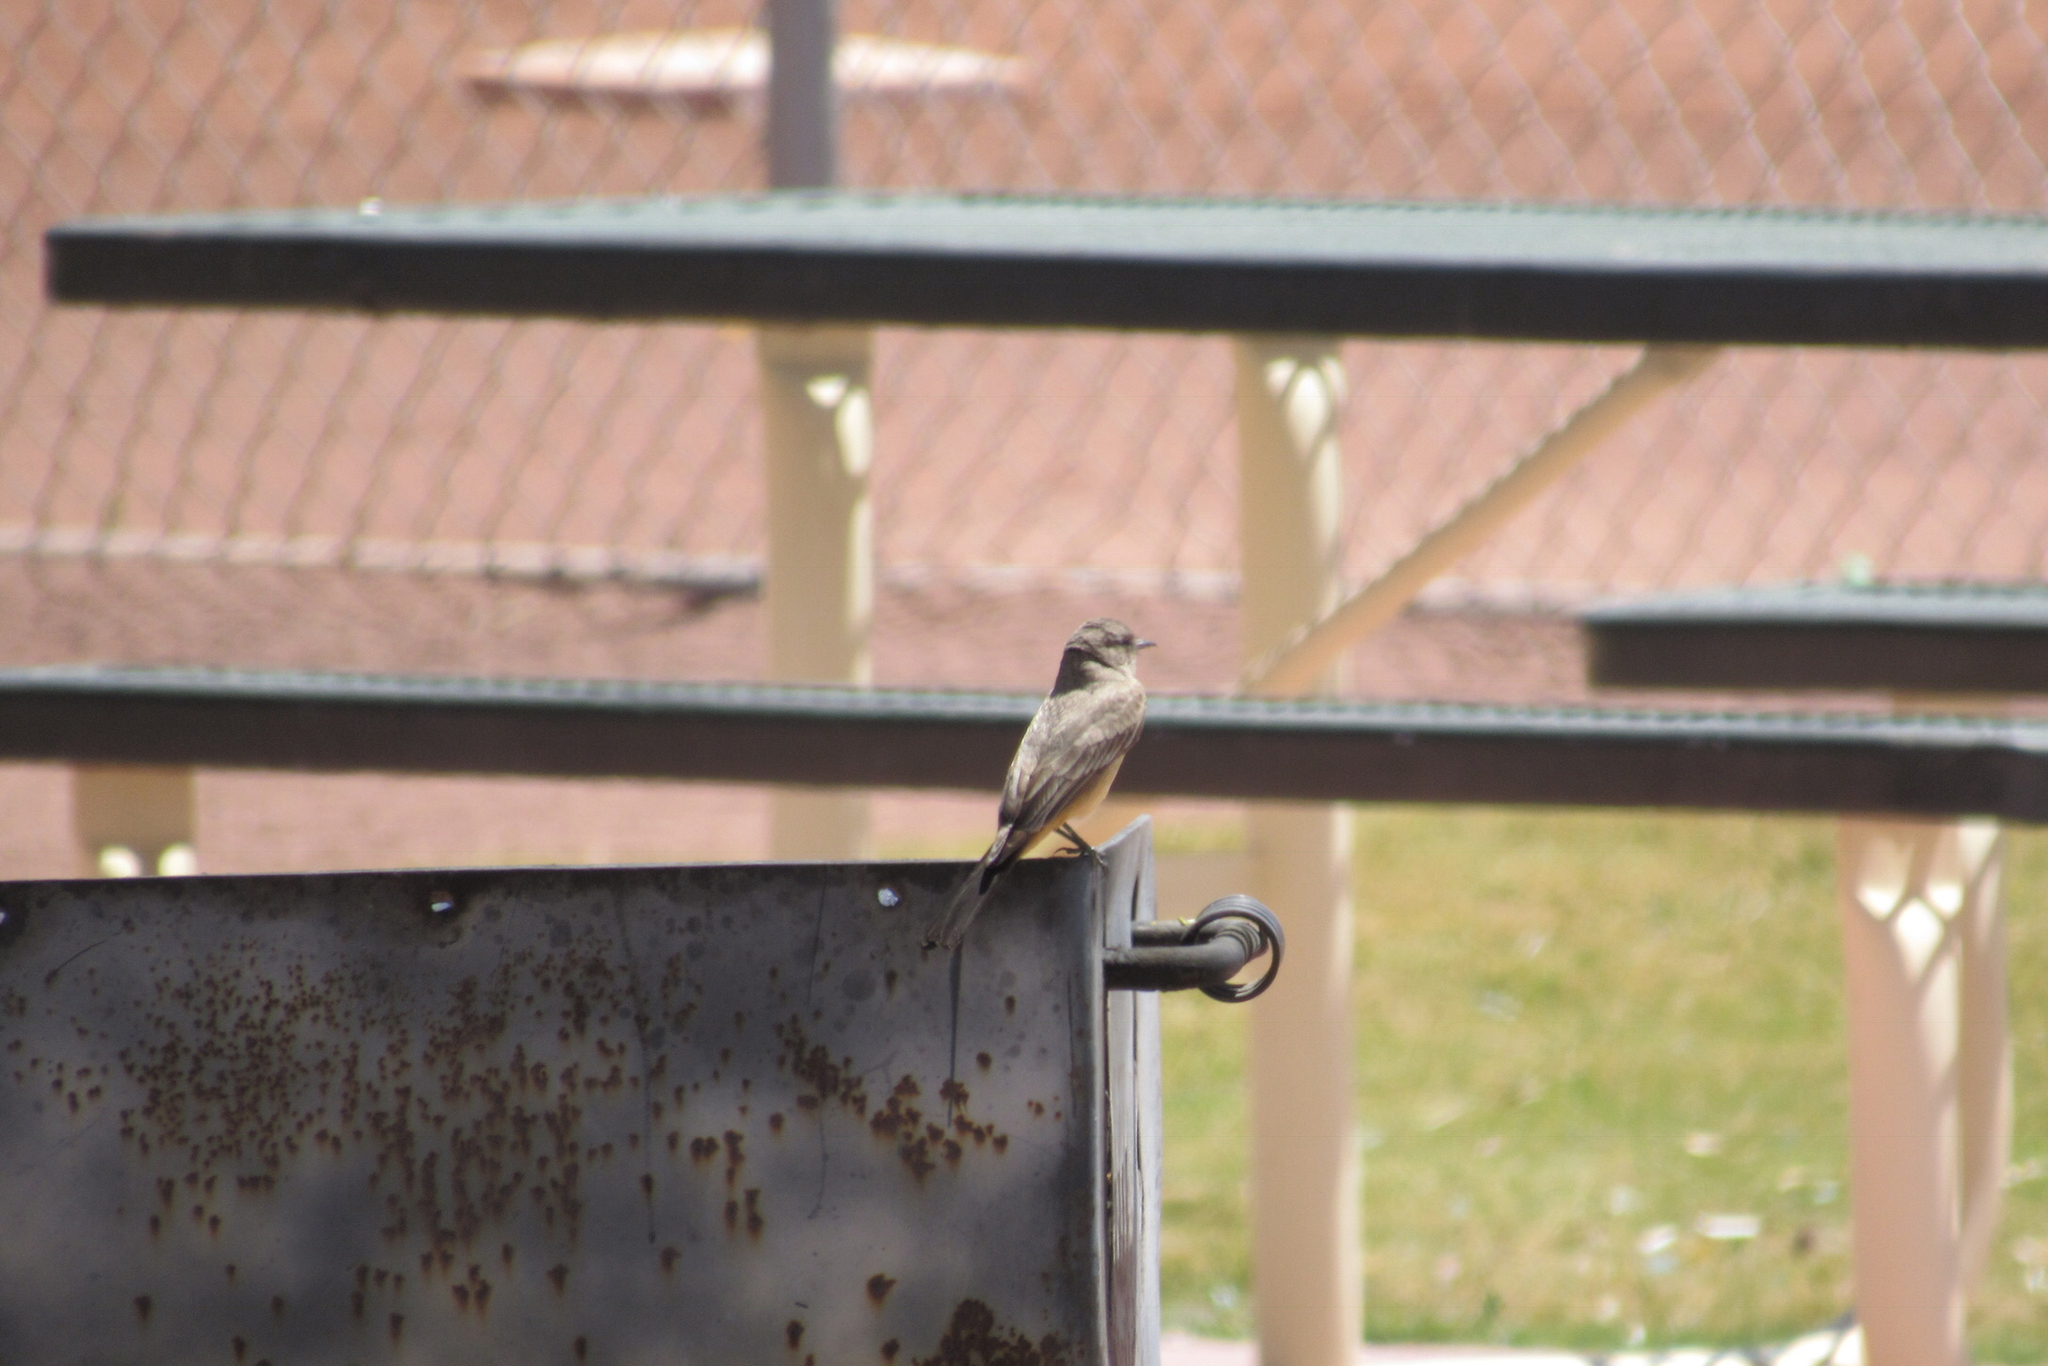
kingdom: Animalia
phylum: Chordata
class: Aves
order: Passeriformes
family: Tyrannidae
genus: Sayornis
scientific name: Sayornis saya
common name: Say's phoebe
